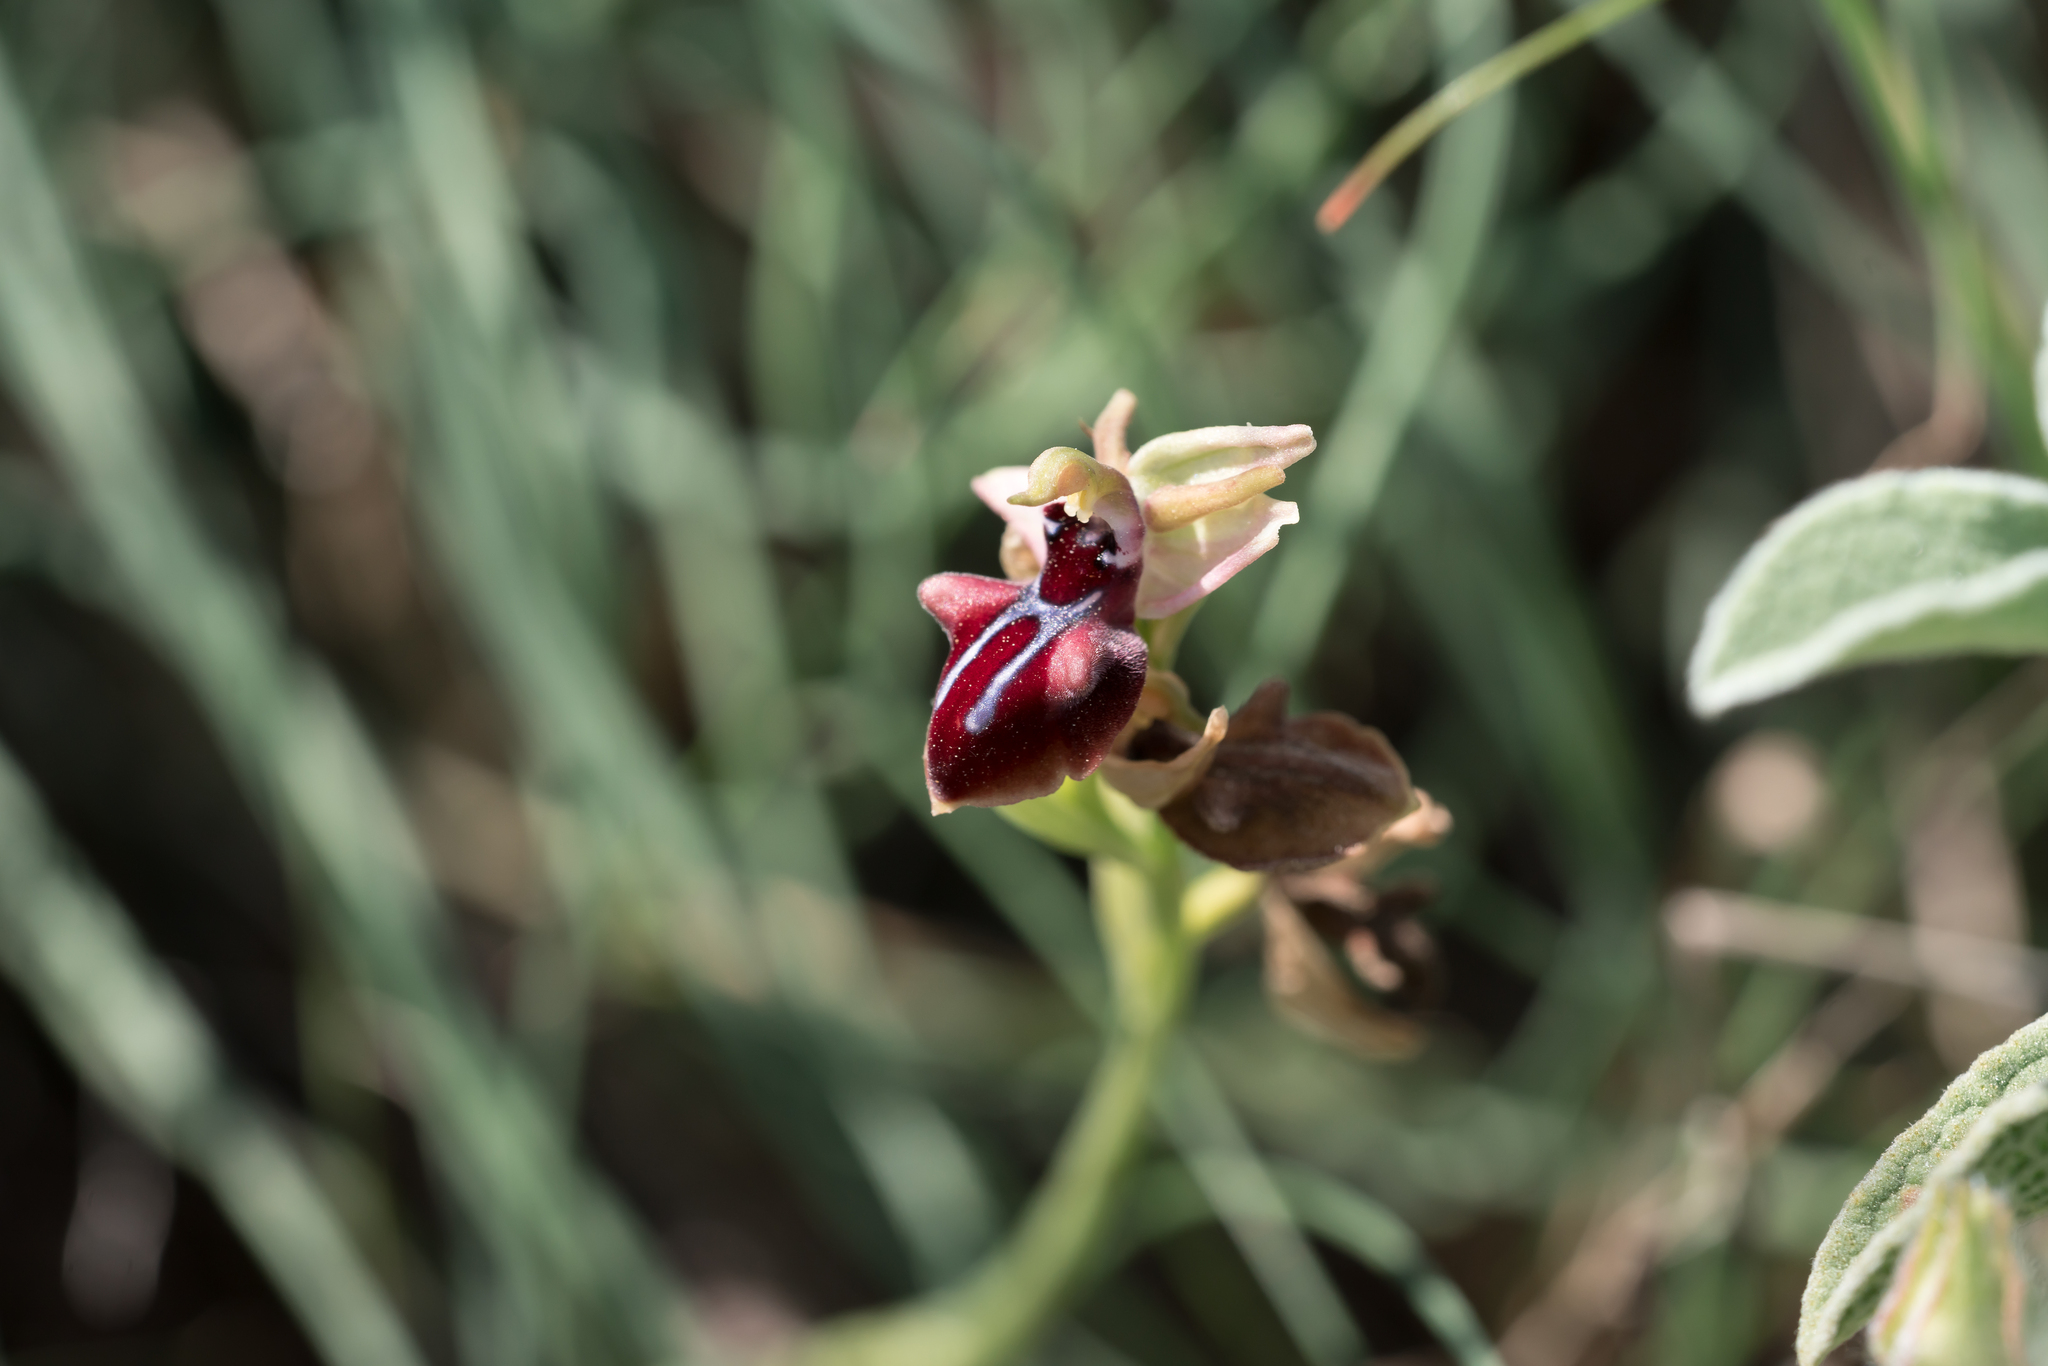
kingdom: Plantae
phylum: Tracheophyta
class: Liliopsida
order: Asparagales
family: Orchidaceae
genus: Ophrys
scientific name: Ophrys sphegodes
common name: Early spider-orchid
